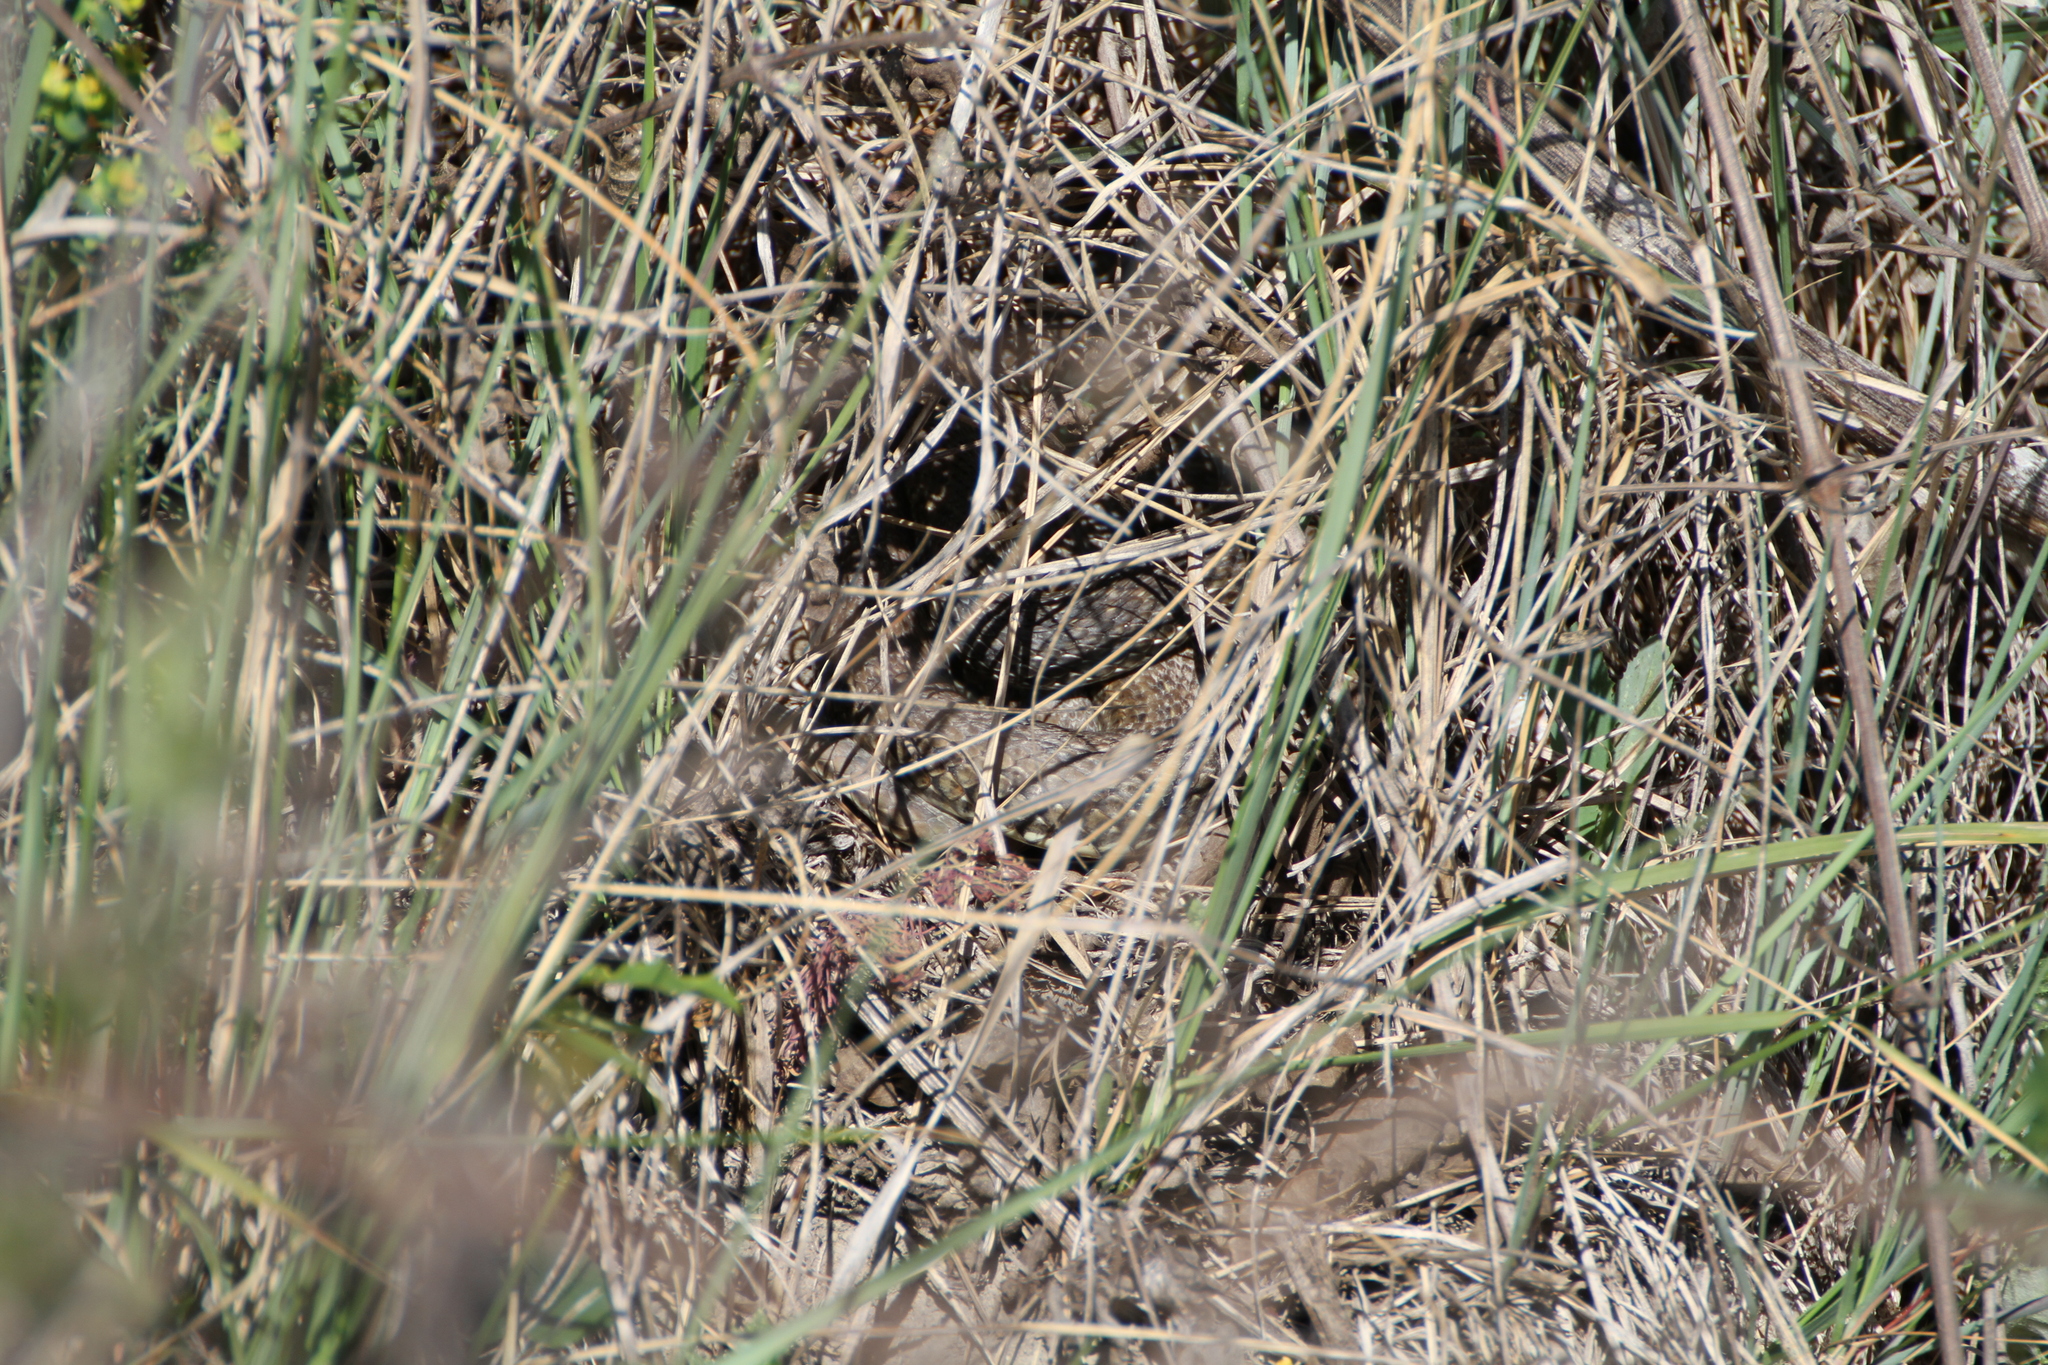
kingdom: Animalia
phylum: Chordata
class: Squamata
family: Psammophiidae
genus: Malpolon
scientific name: Malpolon monspessulanus
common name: Montpellier snake
